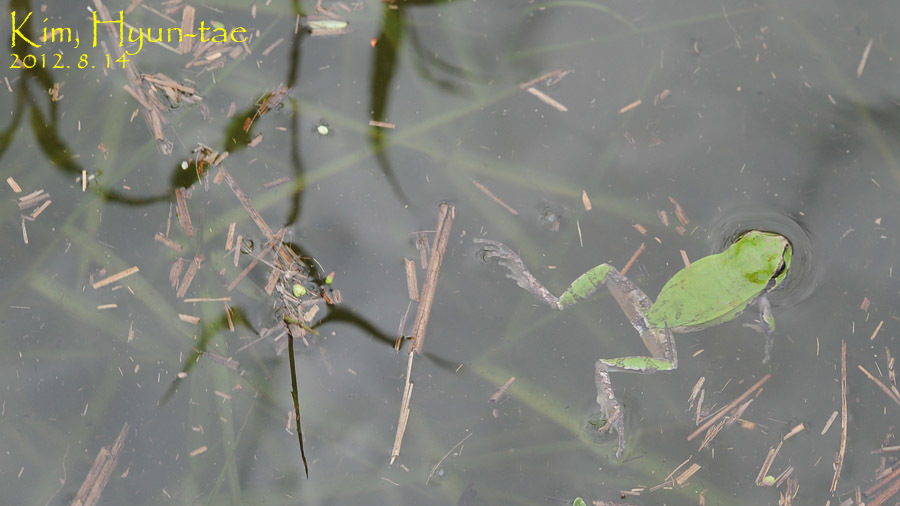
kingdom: Animalia
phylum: Chordata
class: Amphibia
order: Anura
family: Hylidae
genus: Dryophytes
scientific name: Dryophytes japonicus
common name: Japanese treefrog
